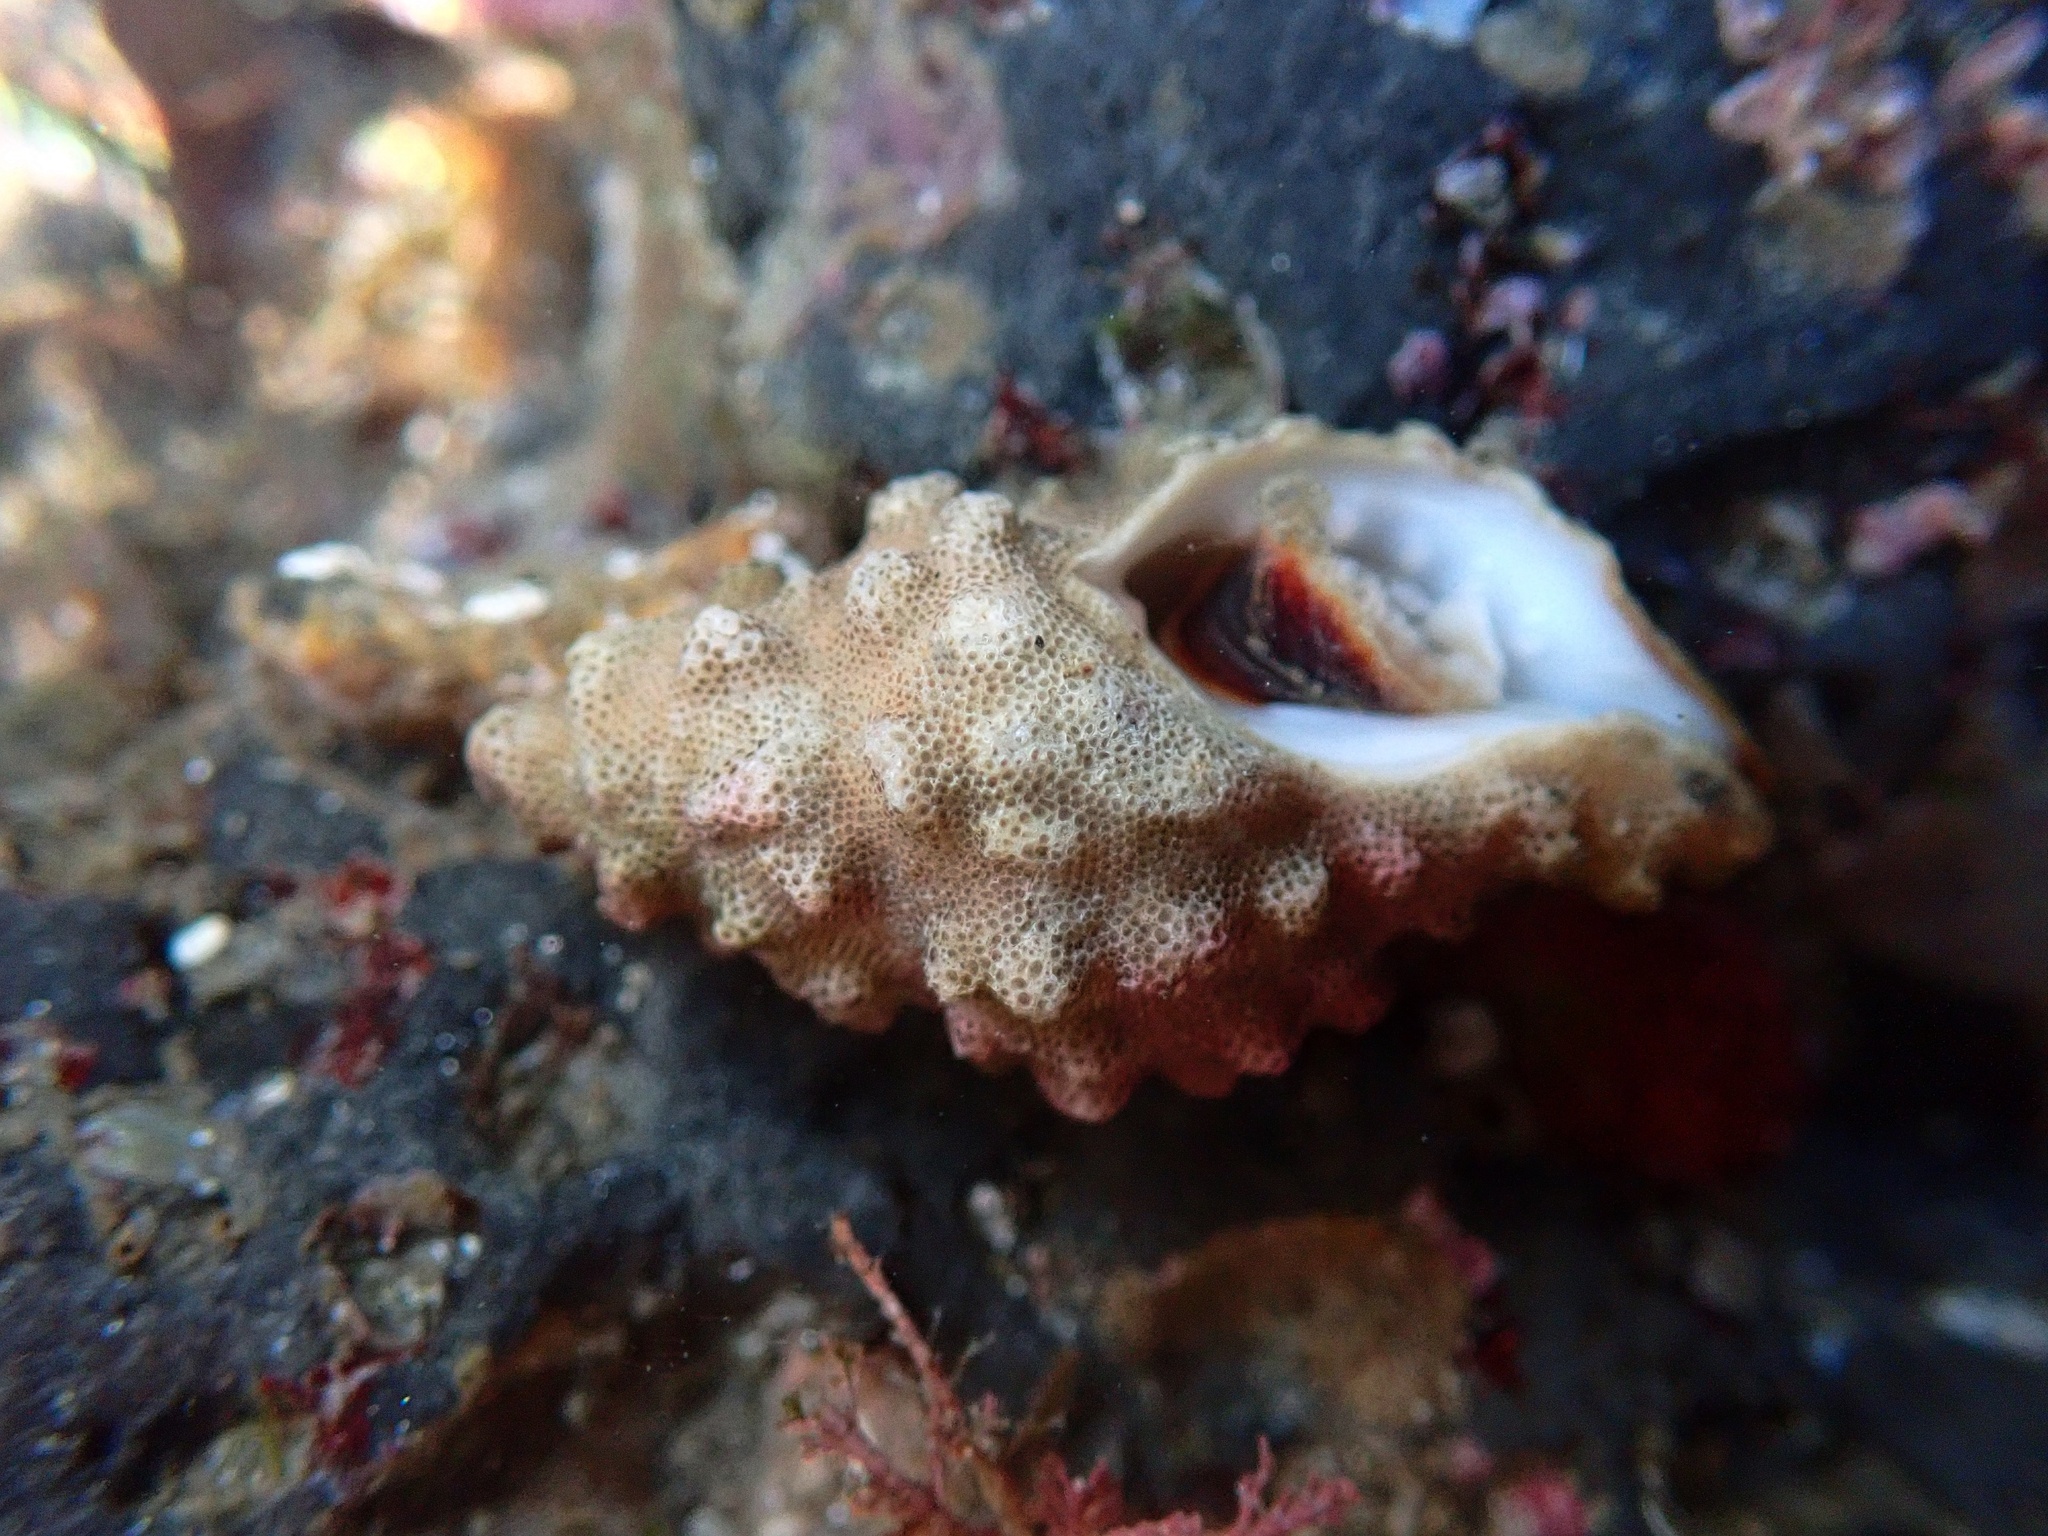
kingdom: Animalia
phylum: Mollusca
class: Gastropoda
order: Neogastropoda
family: Muricidae
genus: Roperia
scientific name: Roperia poulsoni
